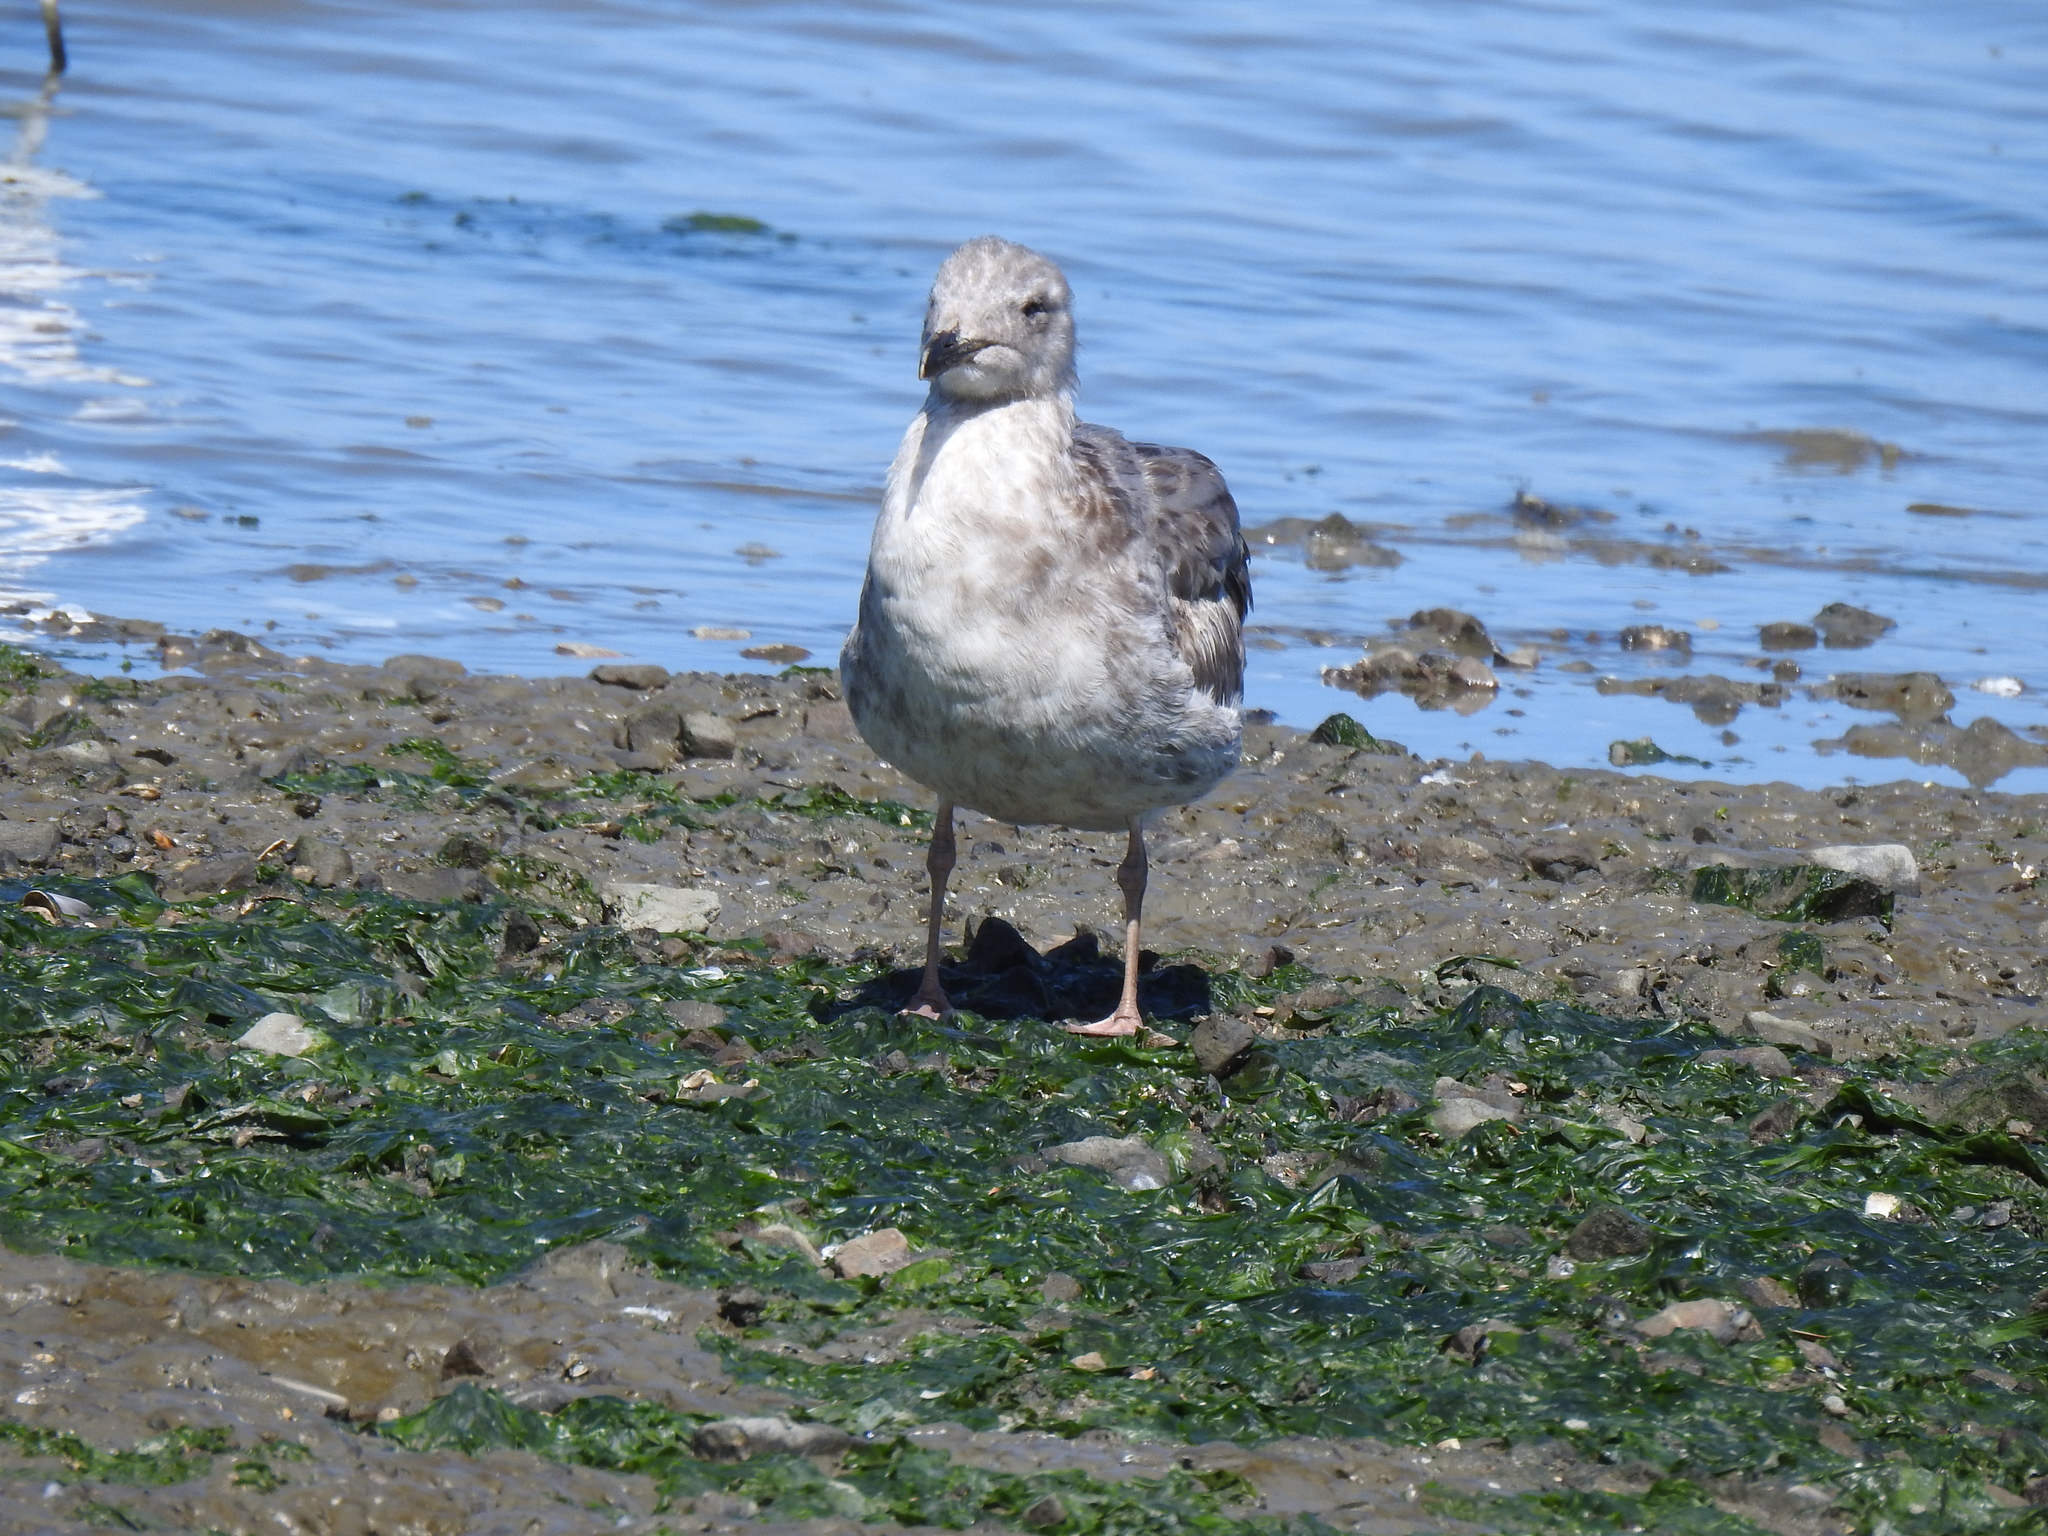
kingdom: Animalia
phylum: Chordata
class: Aves
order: Charadriiformes
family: Laridae
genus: Larus
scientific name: Larus occidentalis
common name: Western gull
